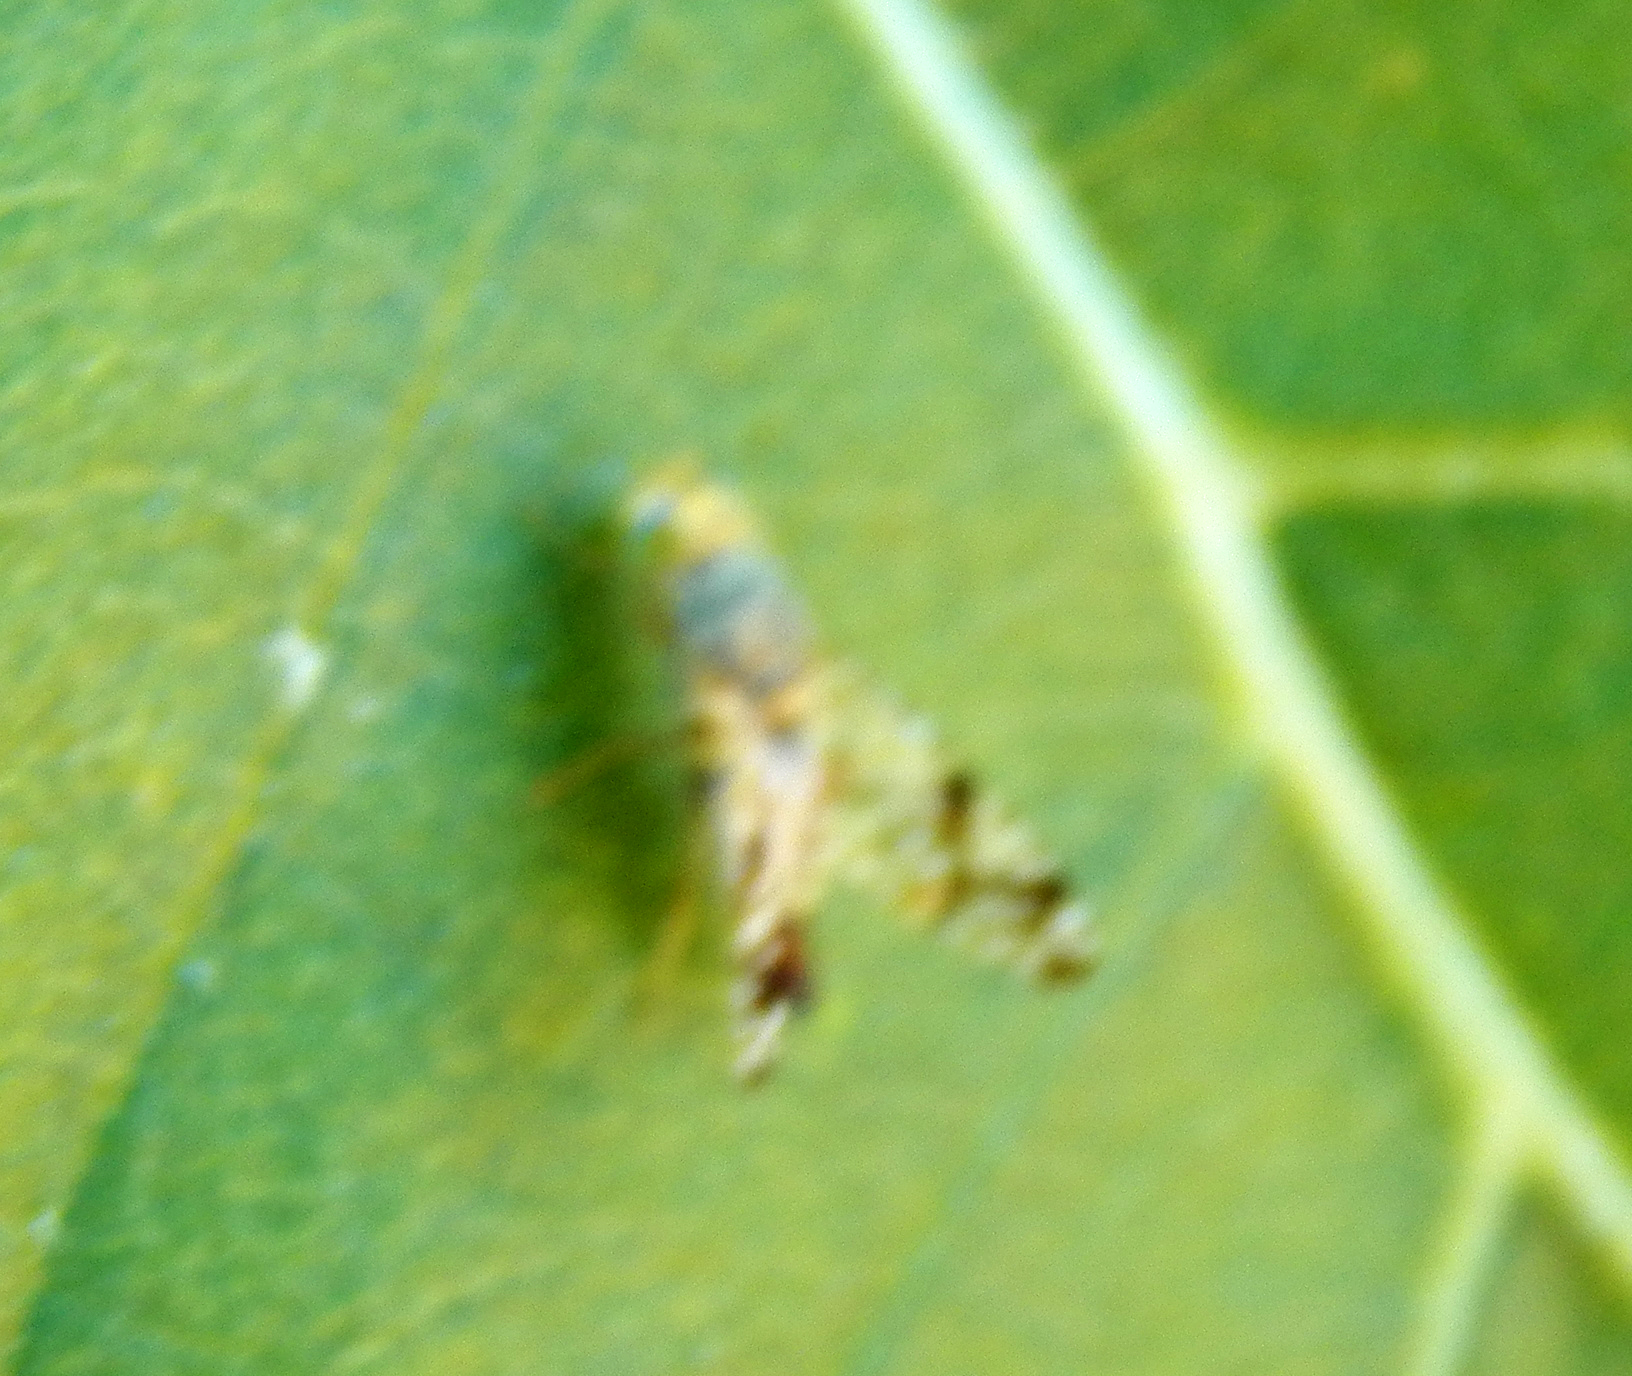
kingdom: Animalia
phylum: Arthropoda
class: Insecta
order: Diptera
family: Tephritidae
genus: Neotephritis
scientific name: Neotephritis finalis
